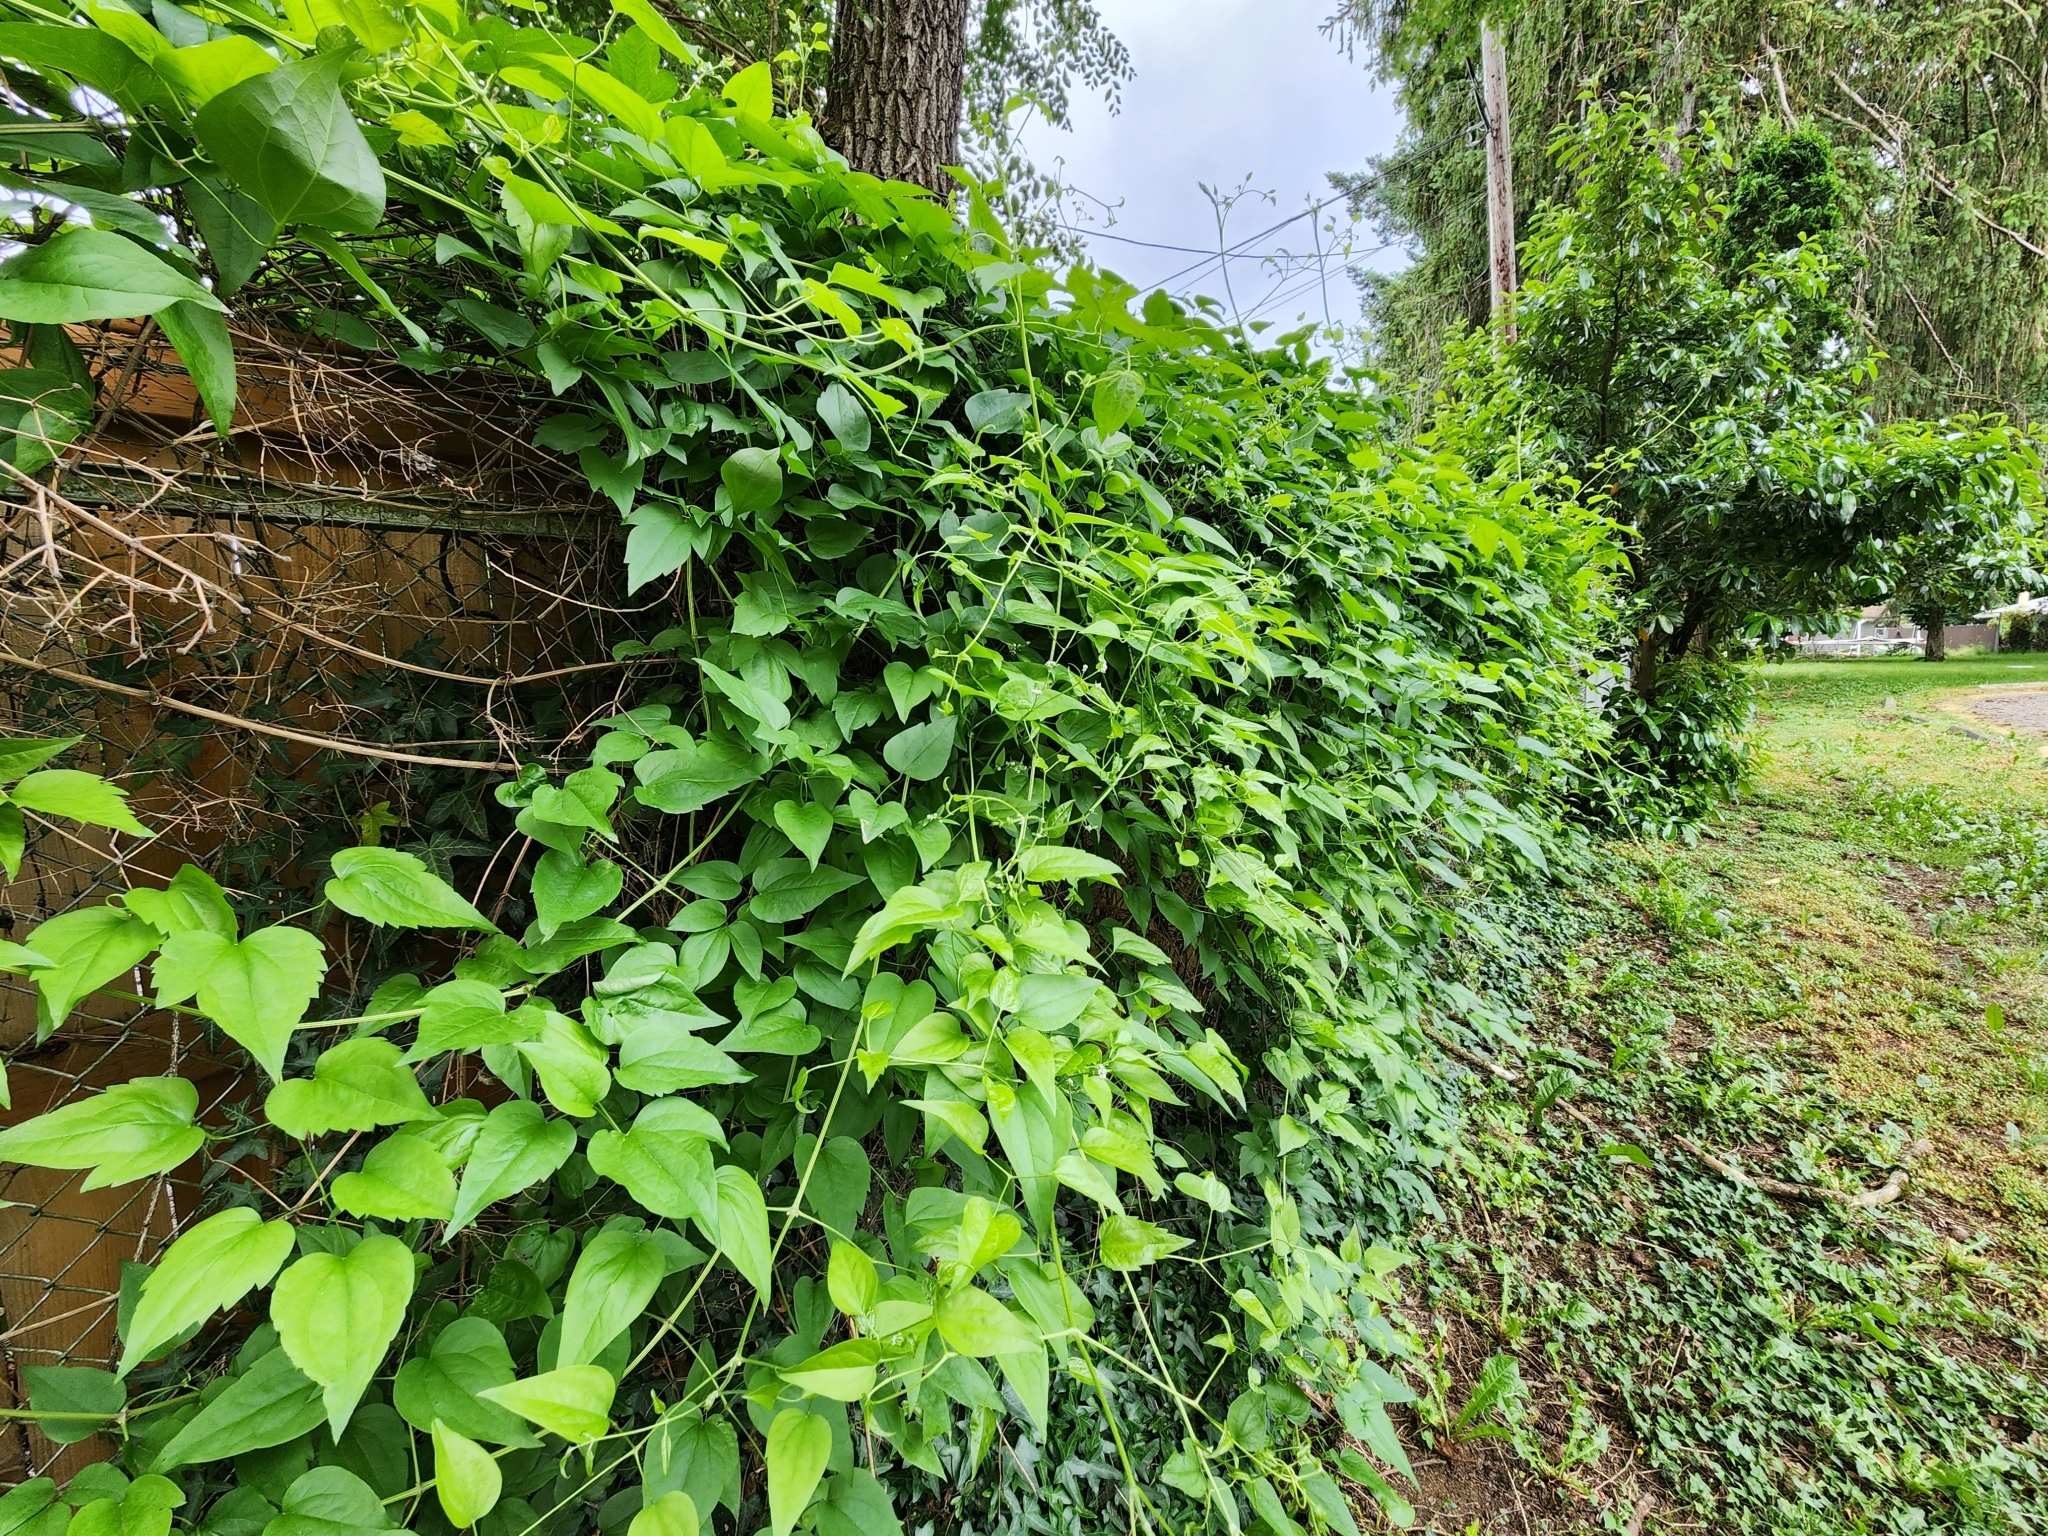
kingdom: Plantae
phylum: Tracheophyta
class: Magnoliopsida
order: Ranunculales
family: Ranunculaceae
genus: Clematis
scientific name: Clematis vitalba
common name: Evergreen clematis
